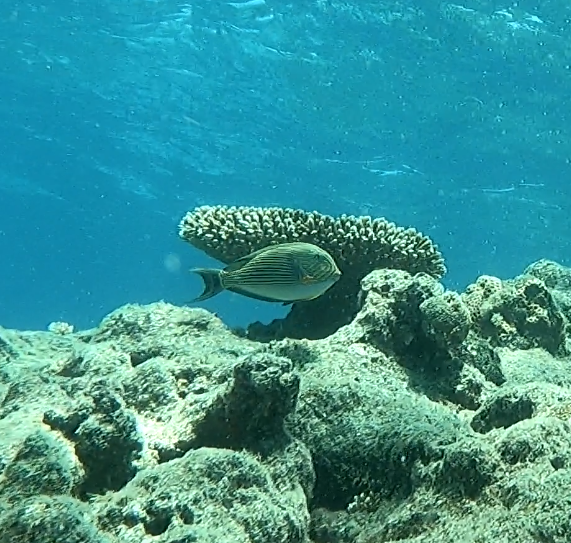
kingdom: Animalia
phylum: Chordata
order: Perciformes
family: Acanthuridae
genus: Acanthurus
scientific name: Acanthurus lineatus
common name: Striped surgeonfish
